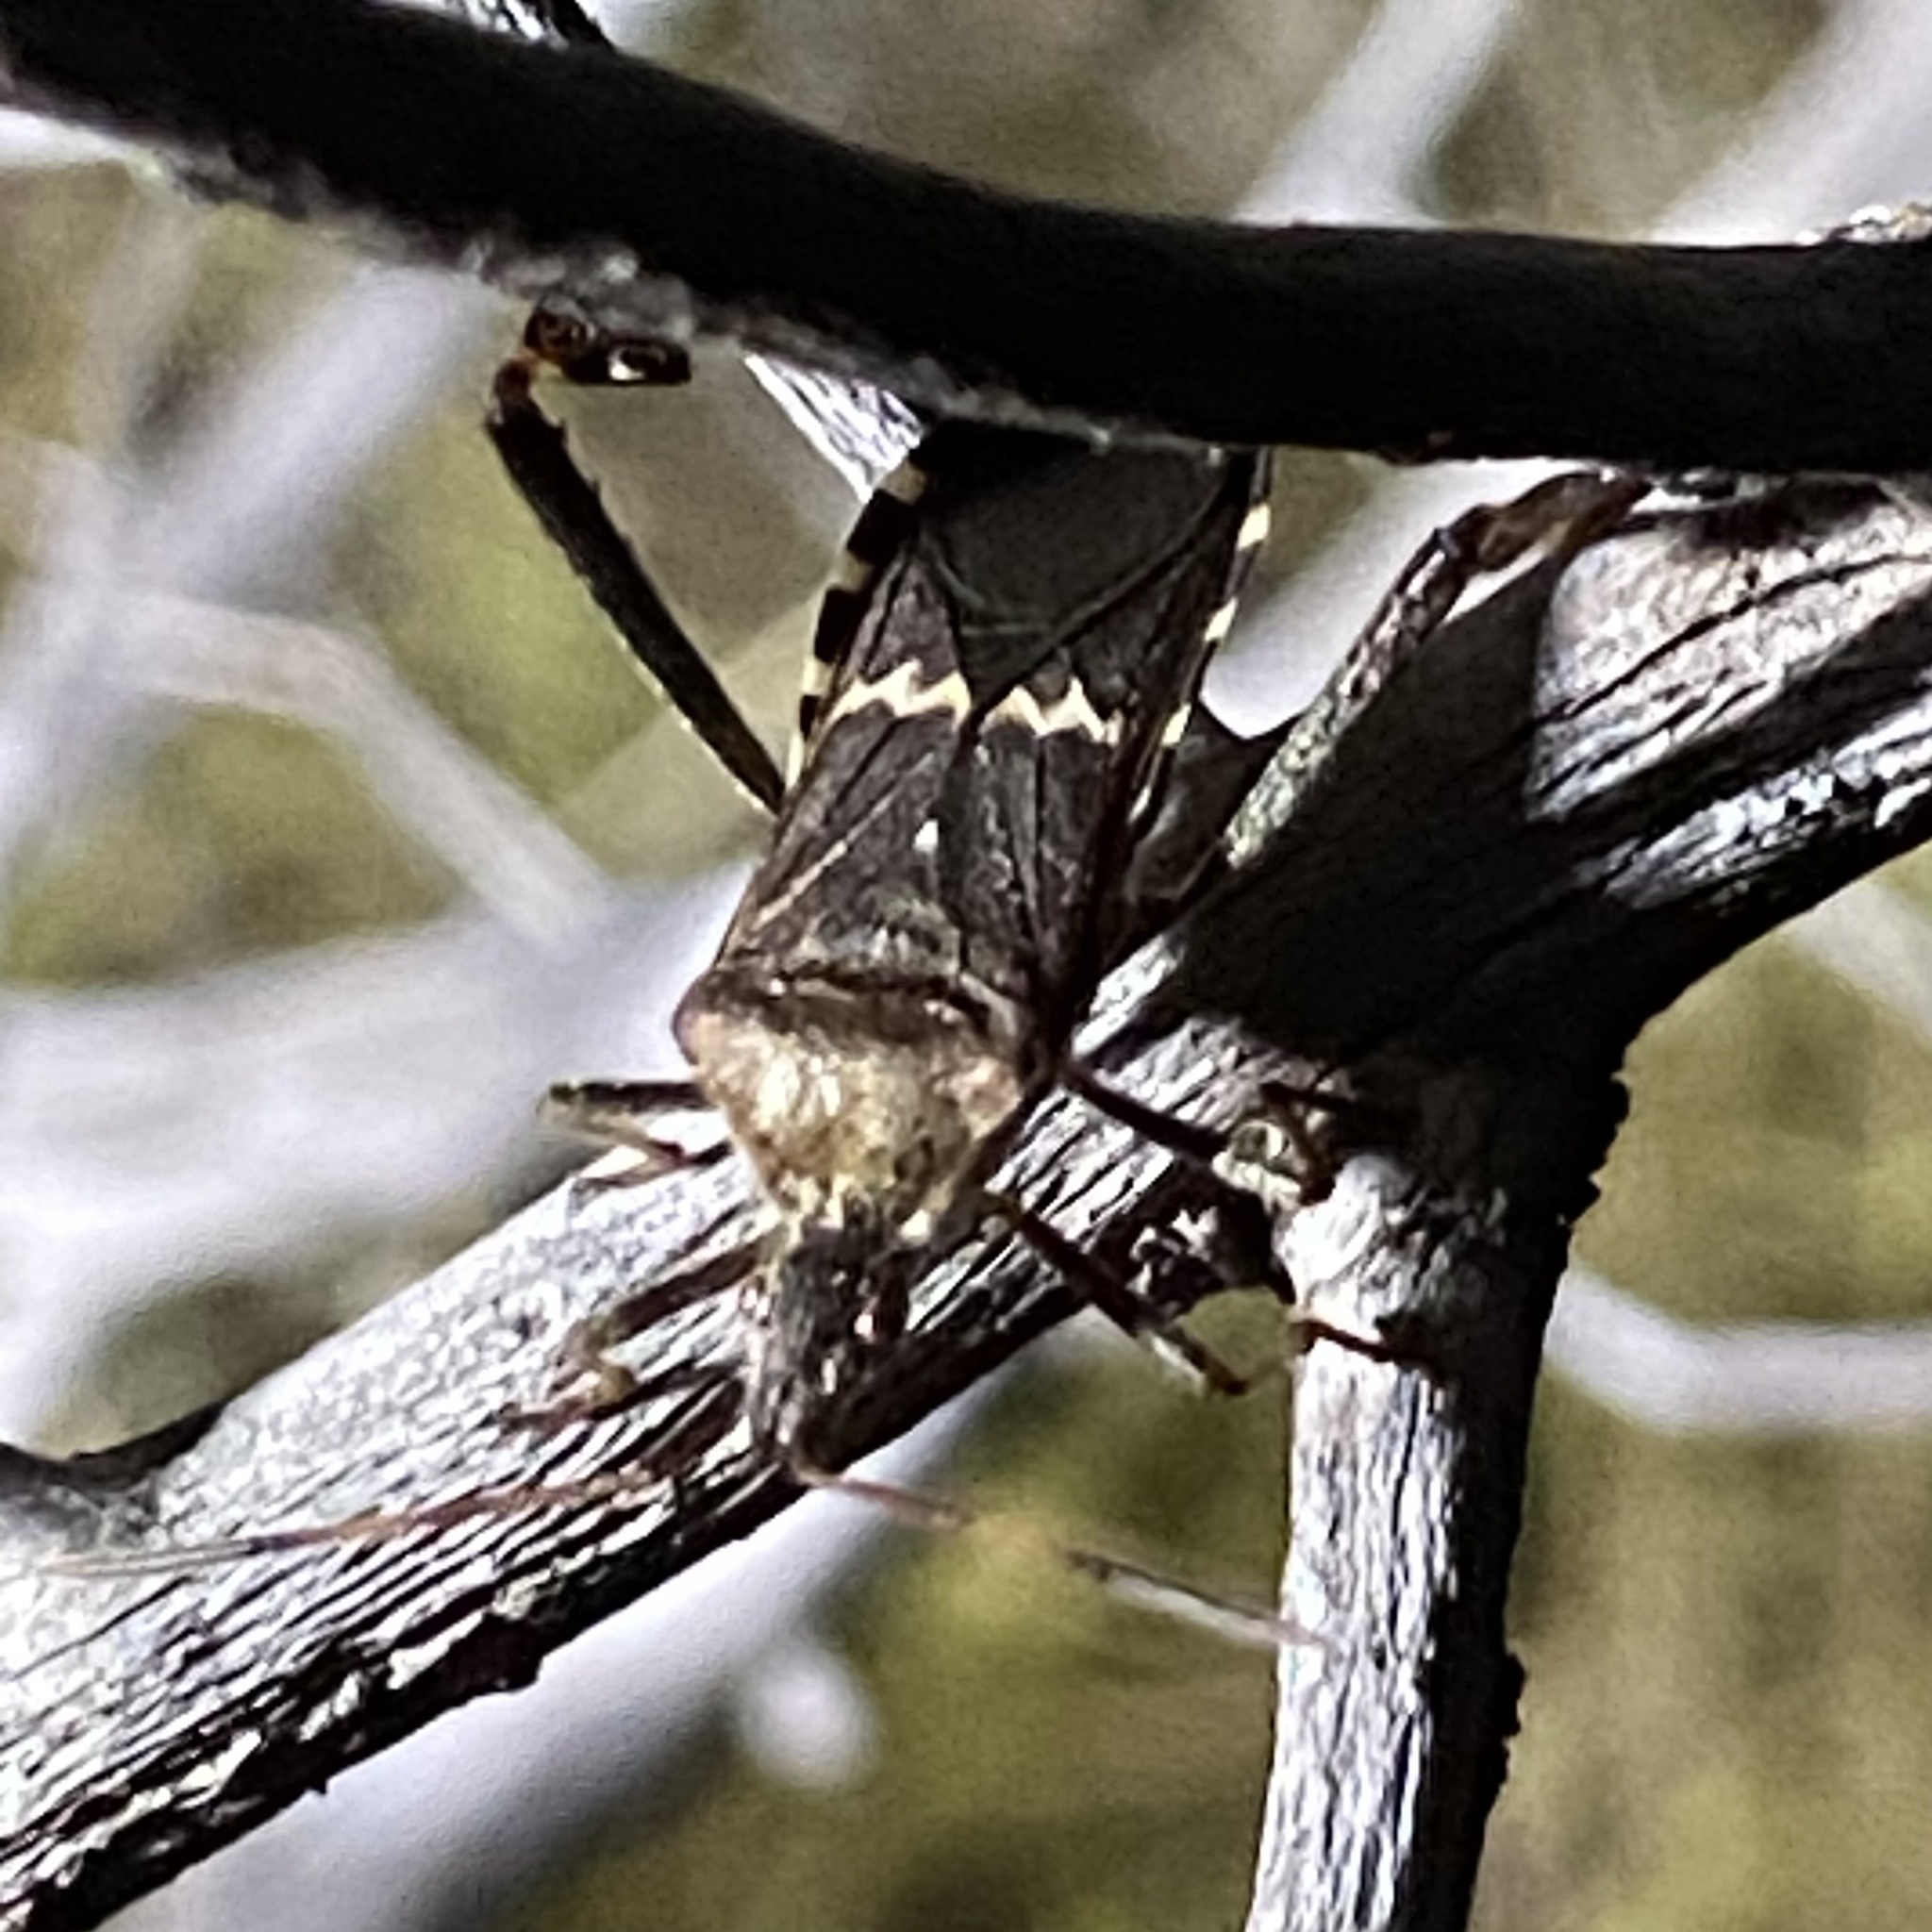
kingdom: Animalia
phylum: Arthropoda
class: Insecta
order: Hemiptera
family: Coreidae
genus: Leptoglossus
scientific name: Leptoglossus clypealis
